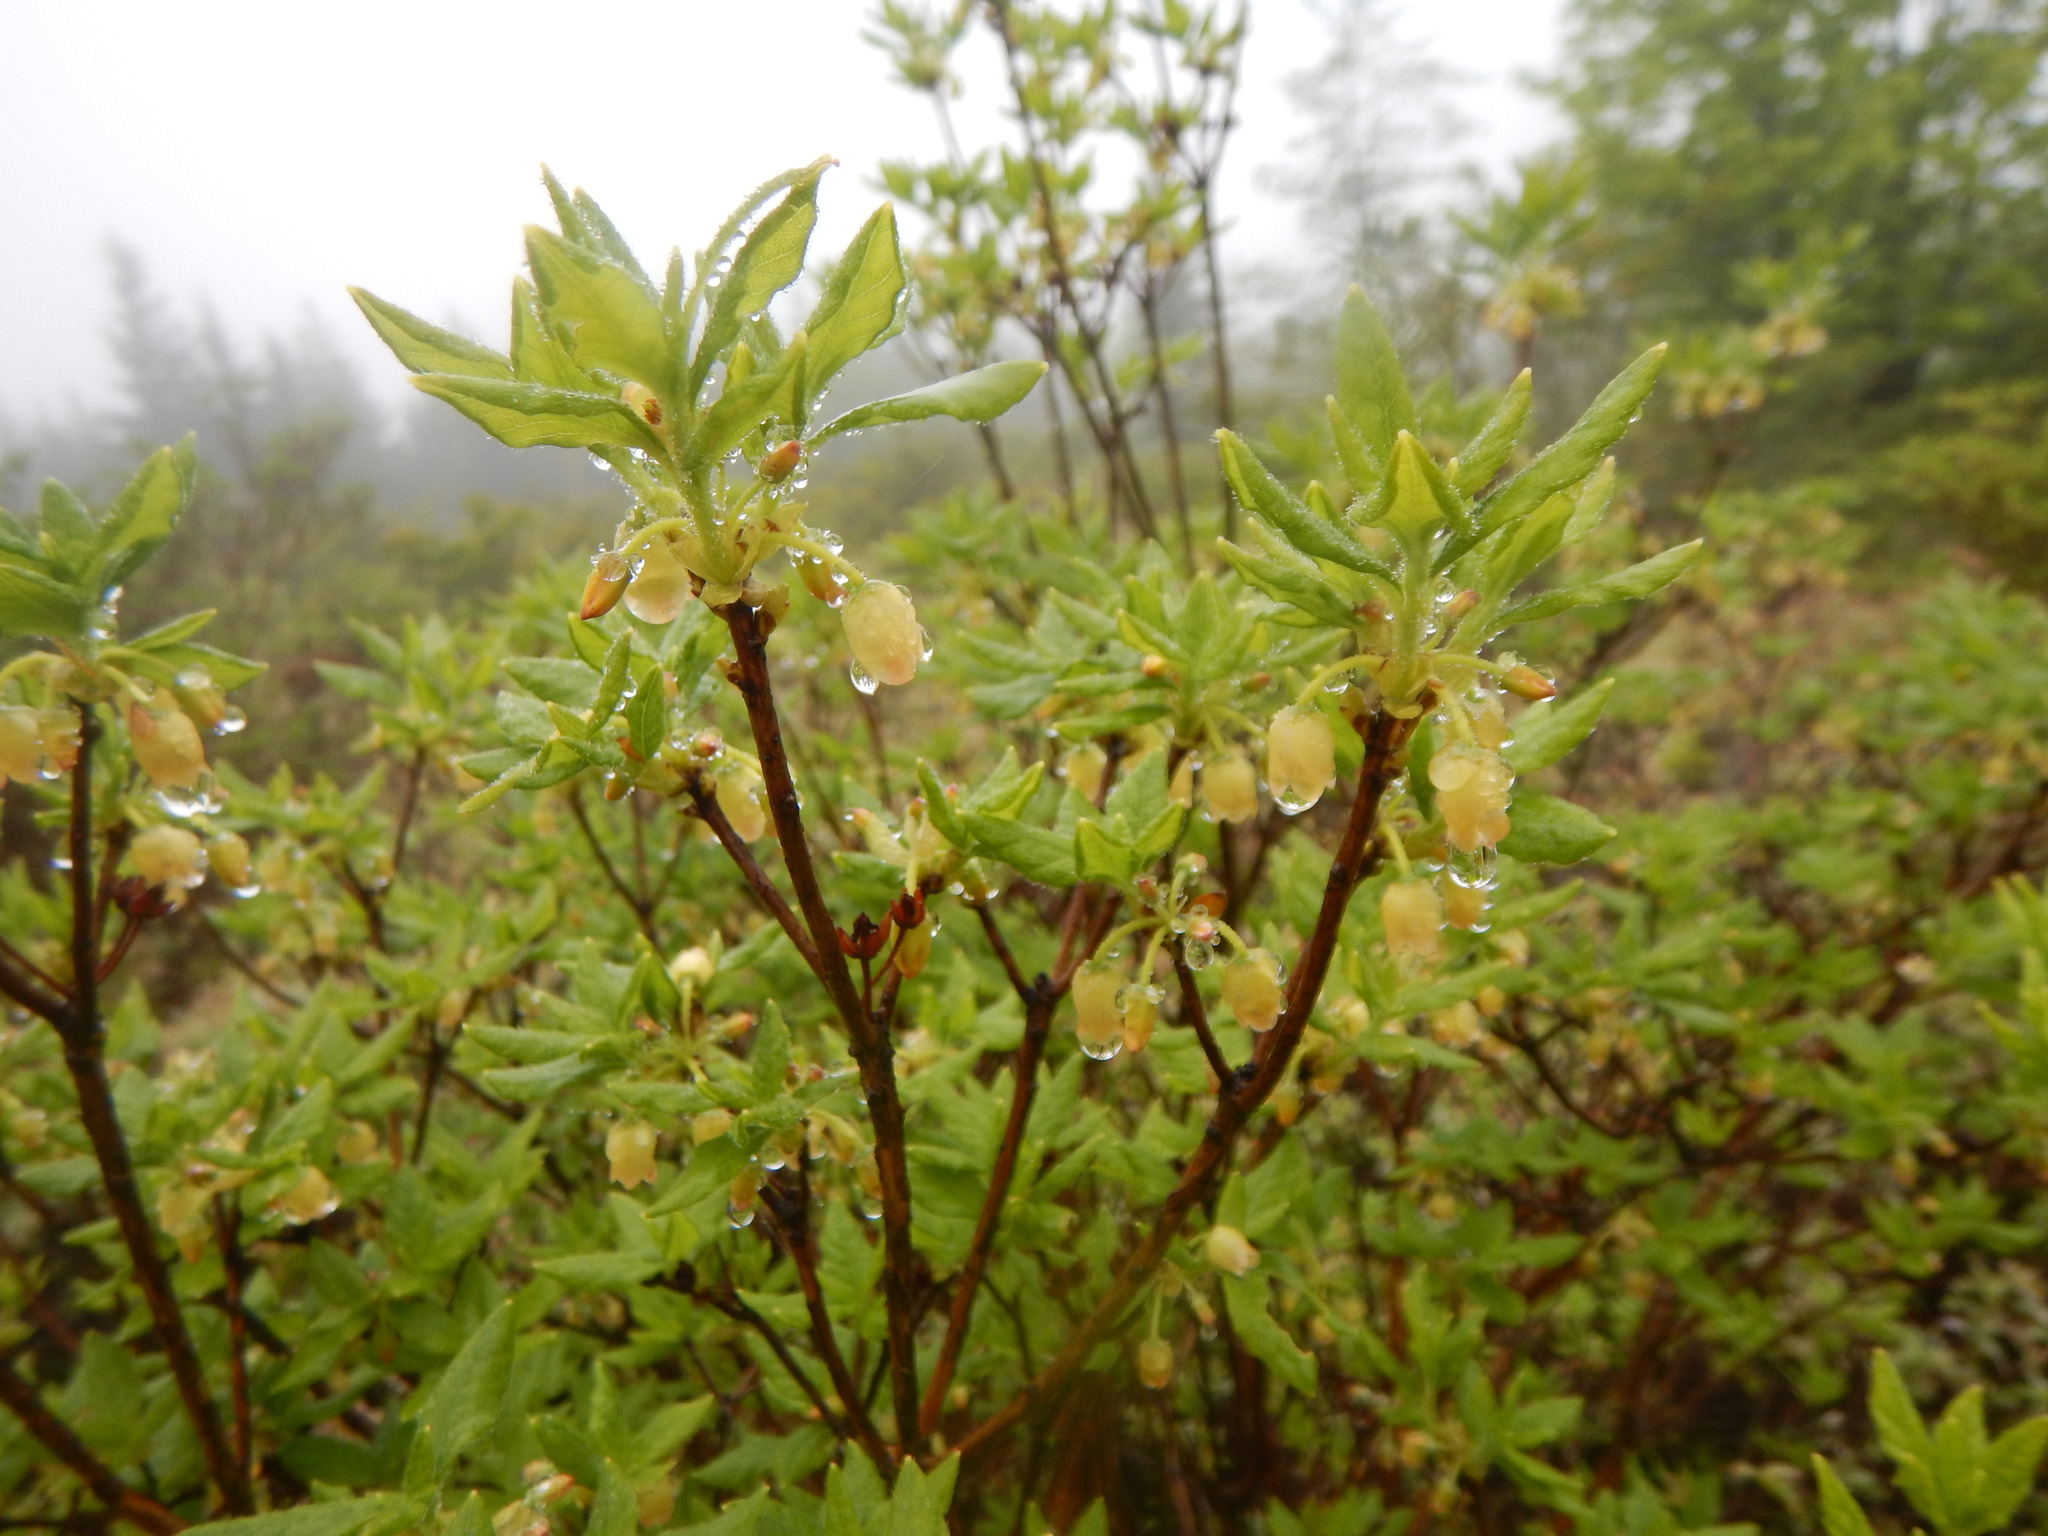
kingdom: Plantae
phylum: Tracheophyta
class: Magnoliopsida
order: Ericales
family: Ericaceae
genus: Rhododendron
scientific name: Rhododendron pilosum
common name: Hairy minniebush
